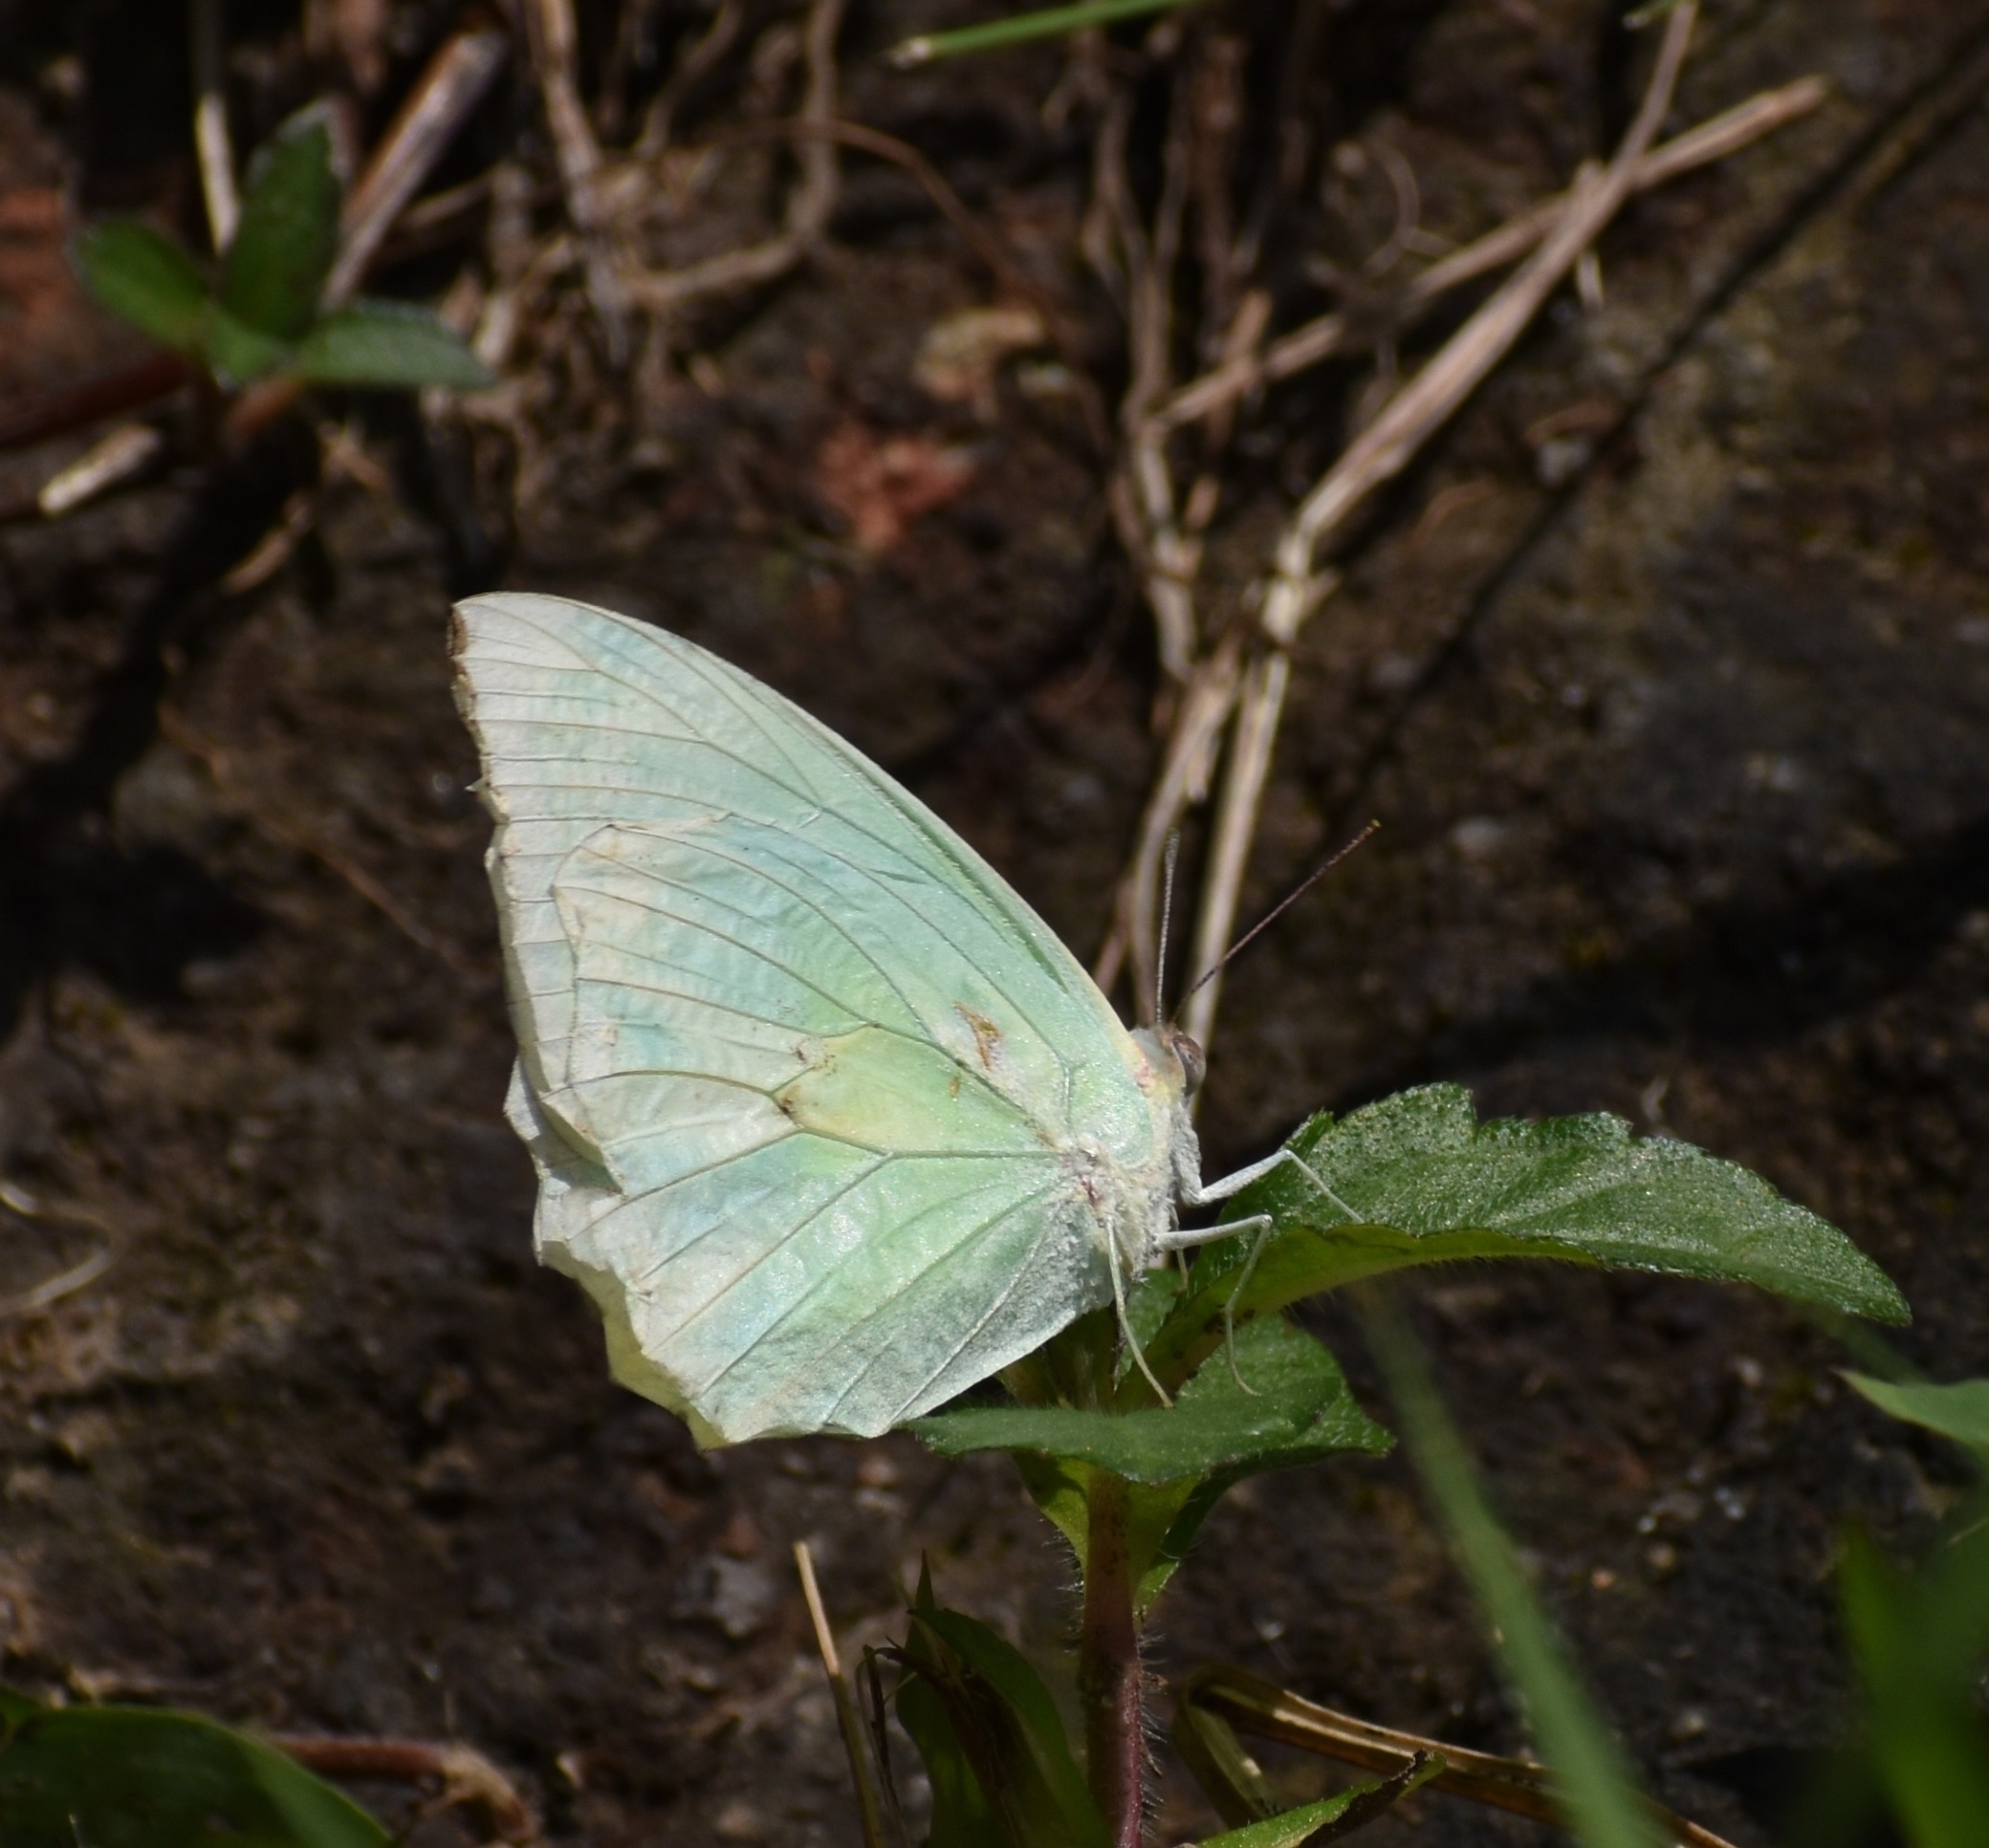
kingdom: Animalia
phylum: Arthropoda
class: Insecta
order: Lepidoptera
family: Pieridae
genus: Catopsilia
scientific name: Catopsilia pomona
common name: Common emigrant
